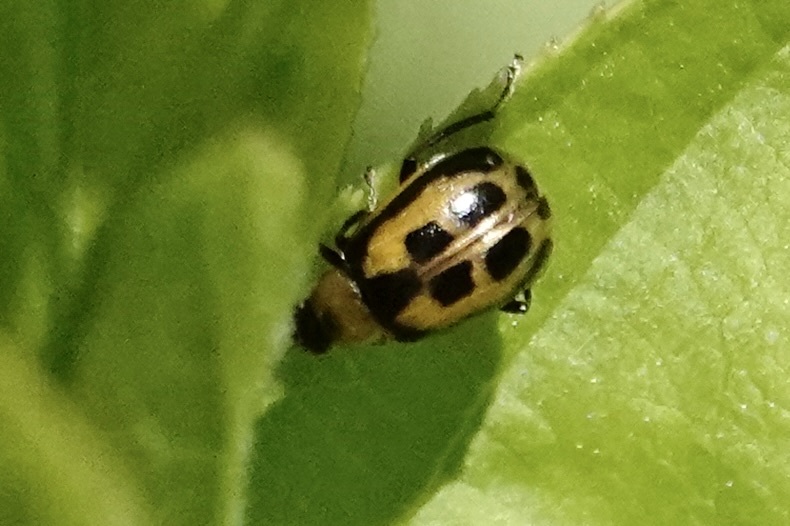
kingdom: Animalia
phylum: Arthropoda
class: Insecta
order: Coleoptera
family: Chrysomelidae
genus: Cerotoma
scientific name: Cerotoma trifurcata
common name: Bean leaf beetle
